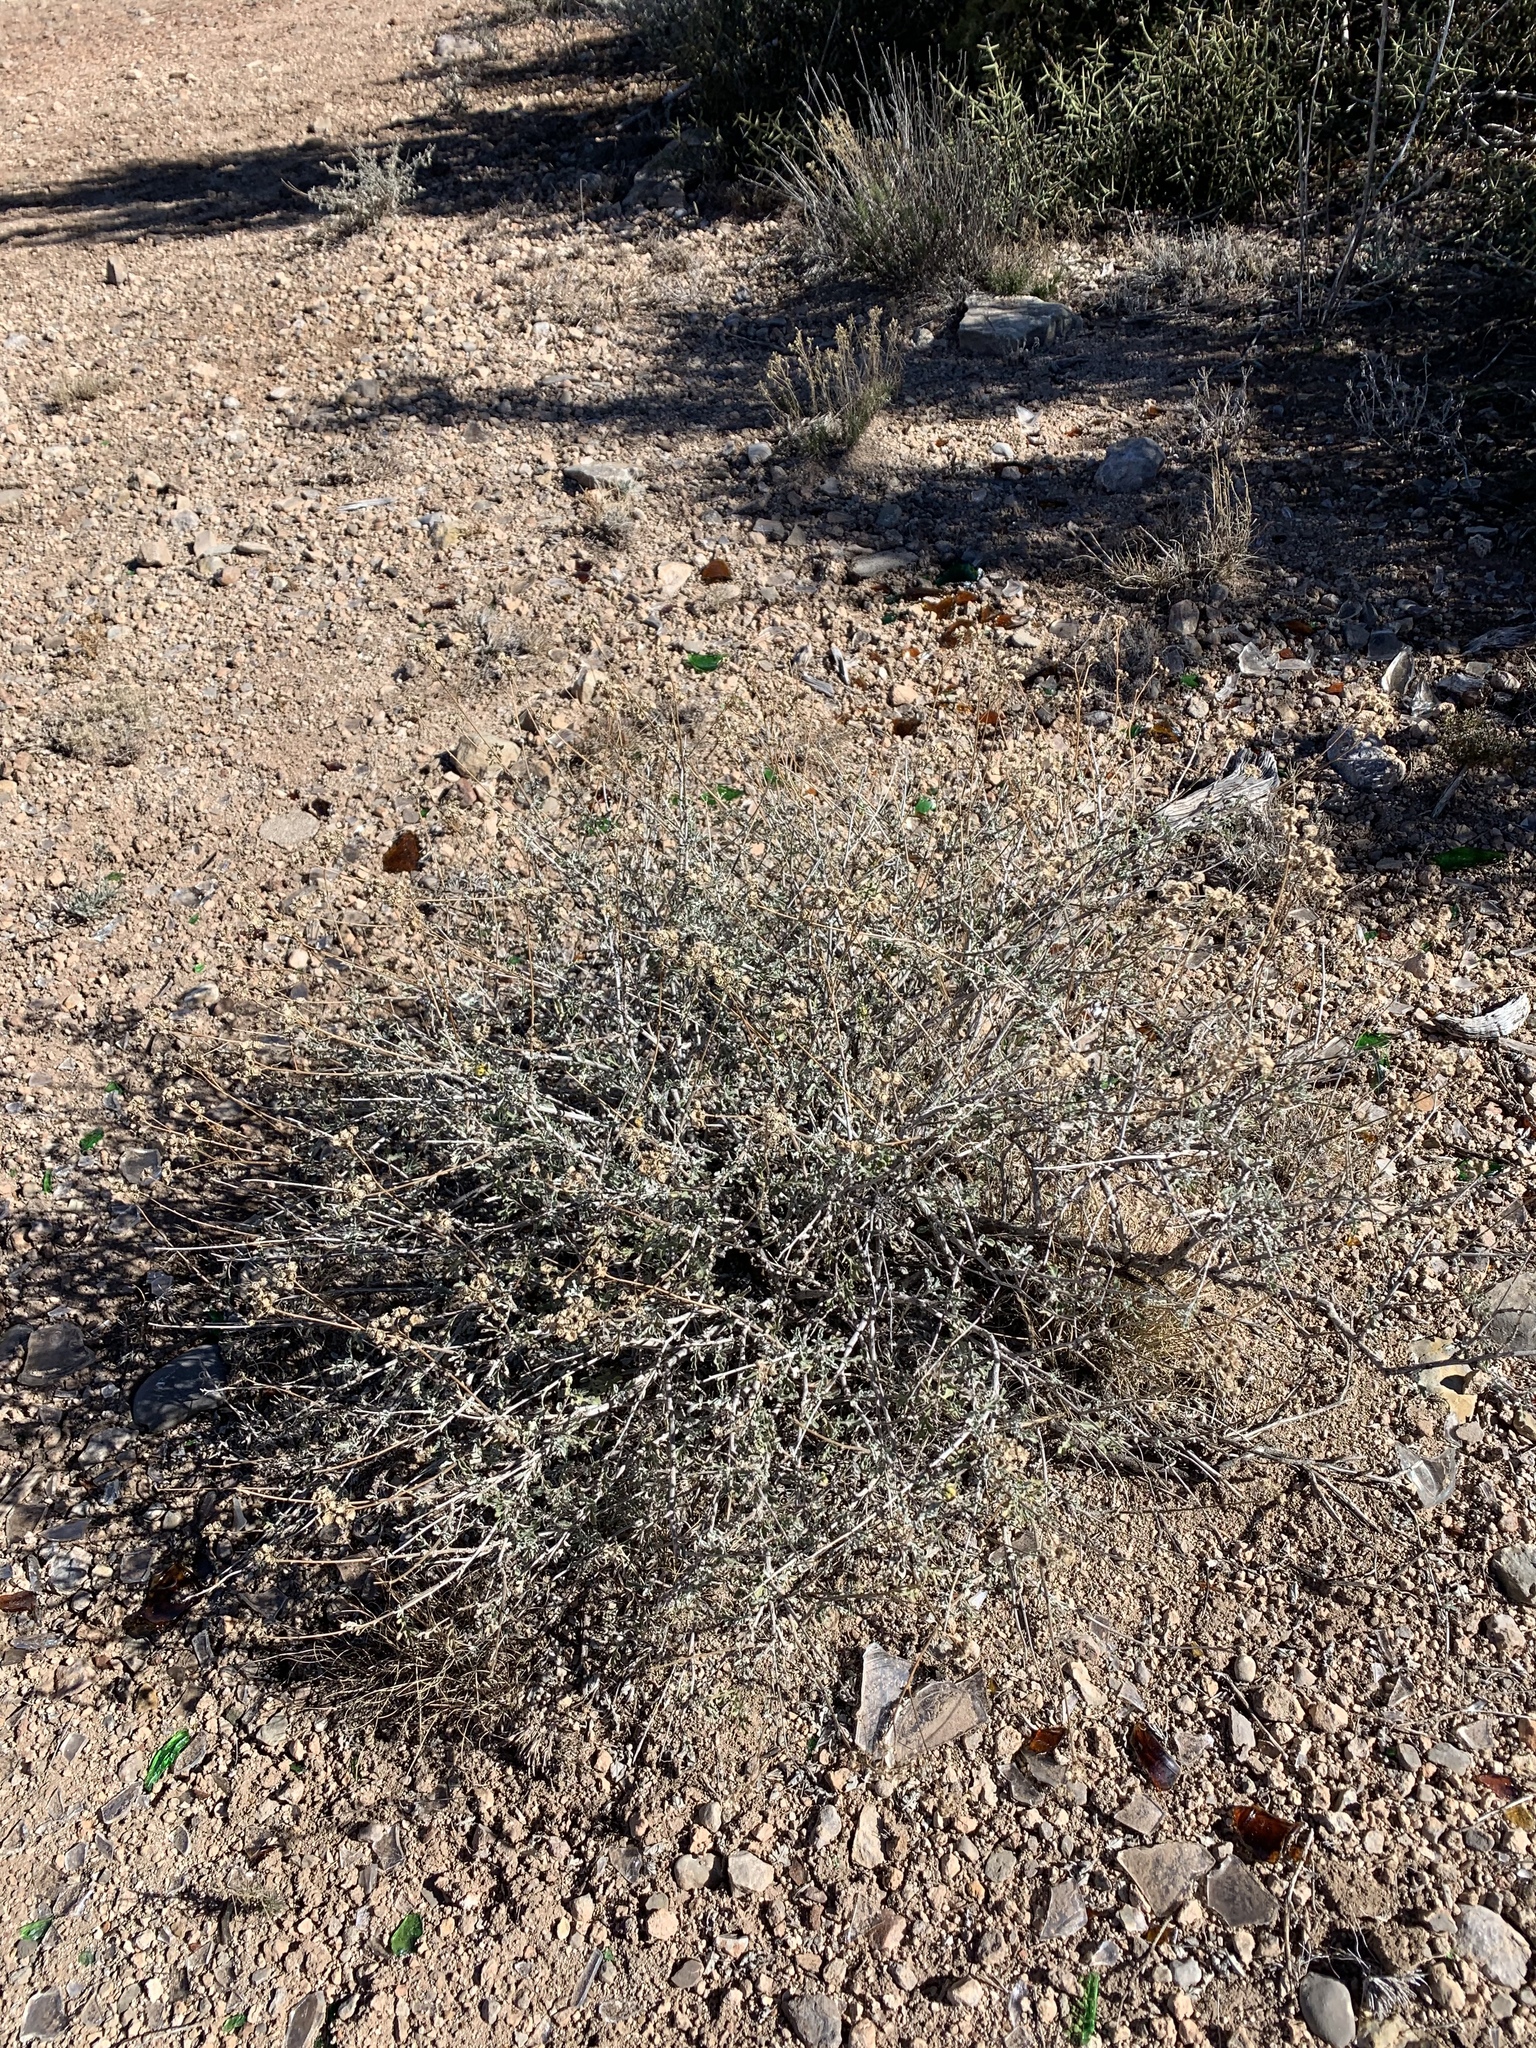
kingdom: Plantae
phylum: Tracheophyta
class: Magnoliopsida
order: Asterales
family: Asteraceae
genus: Parthenium
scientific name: Parthenium incanum
